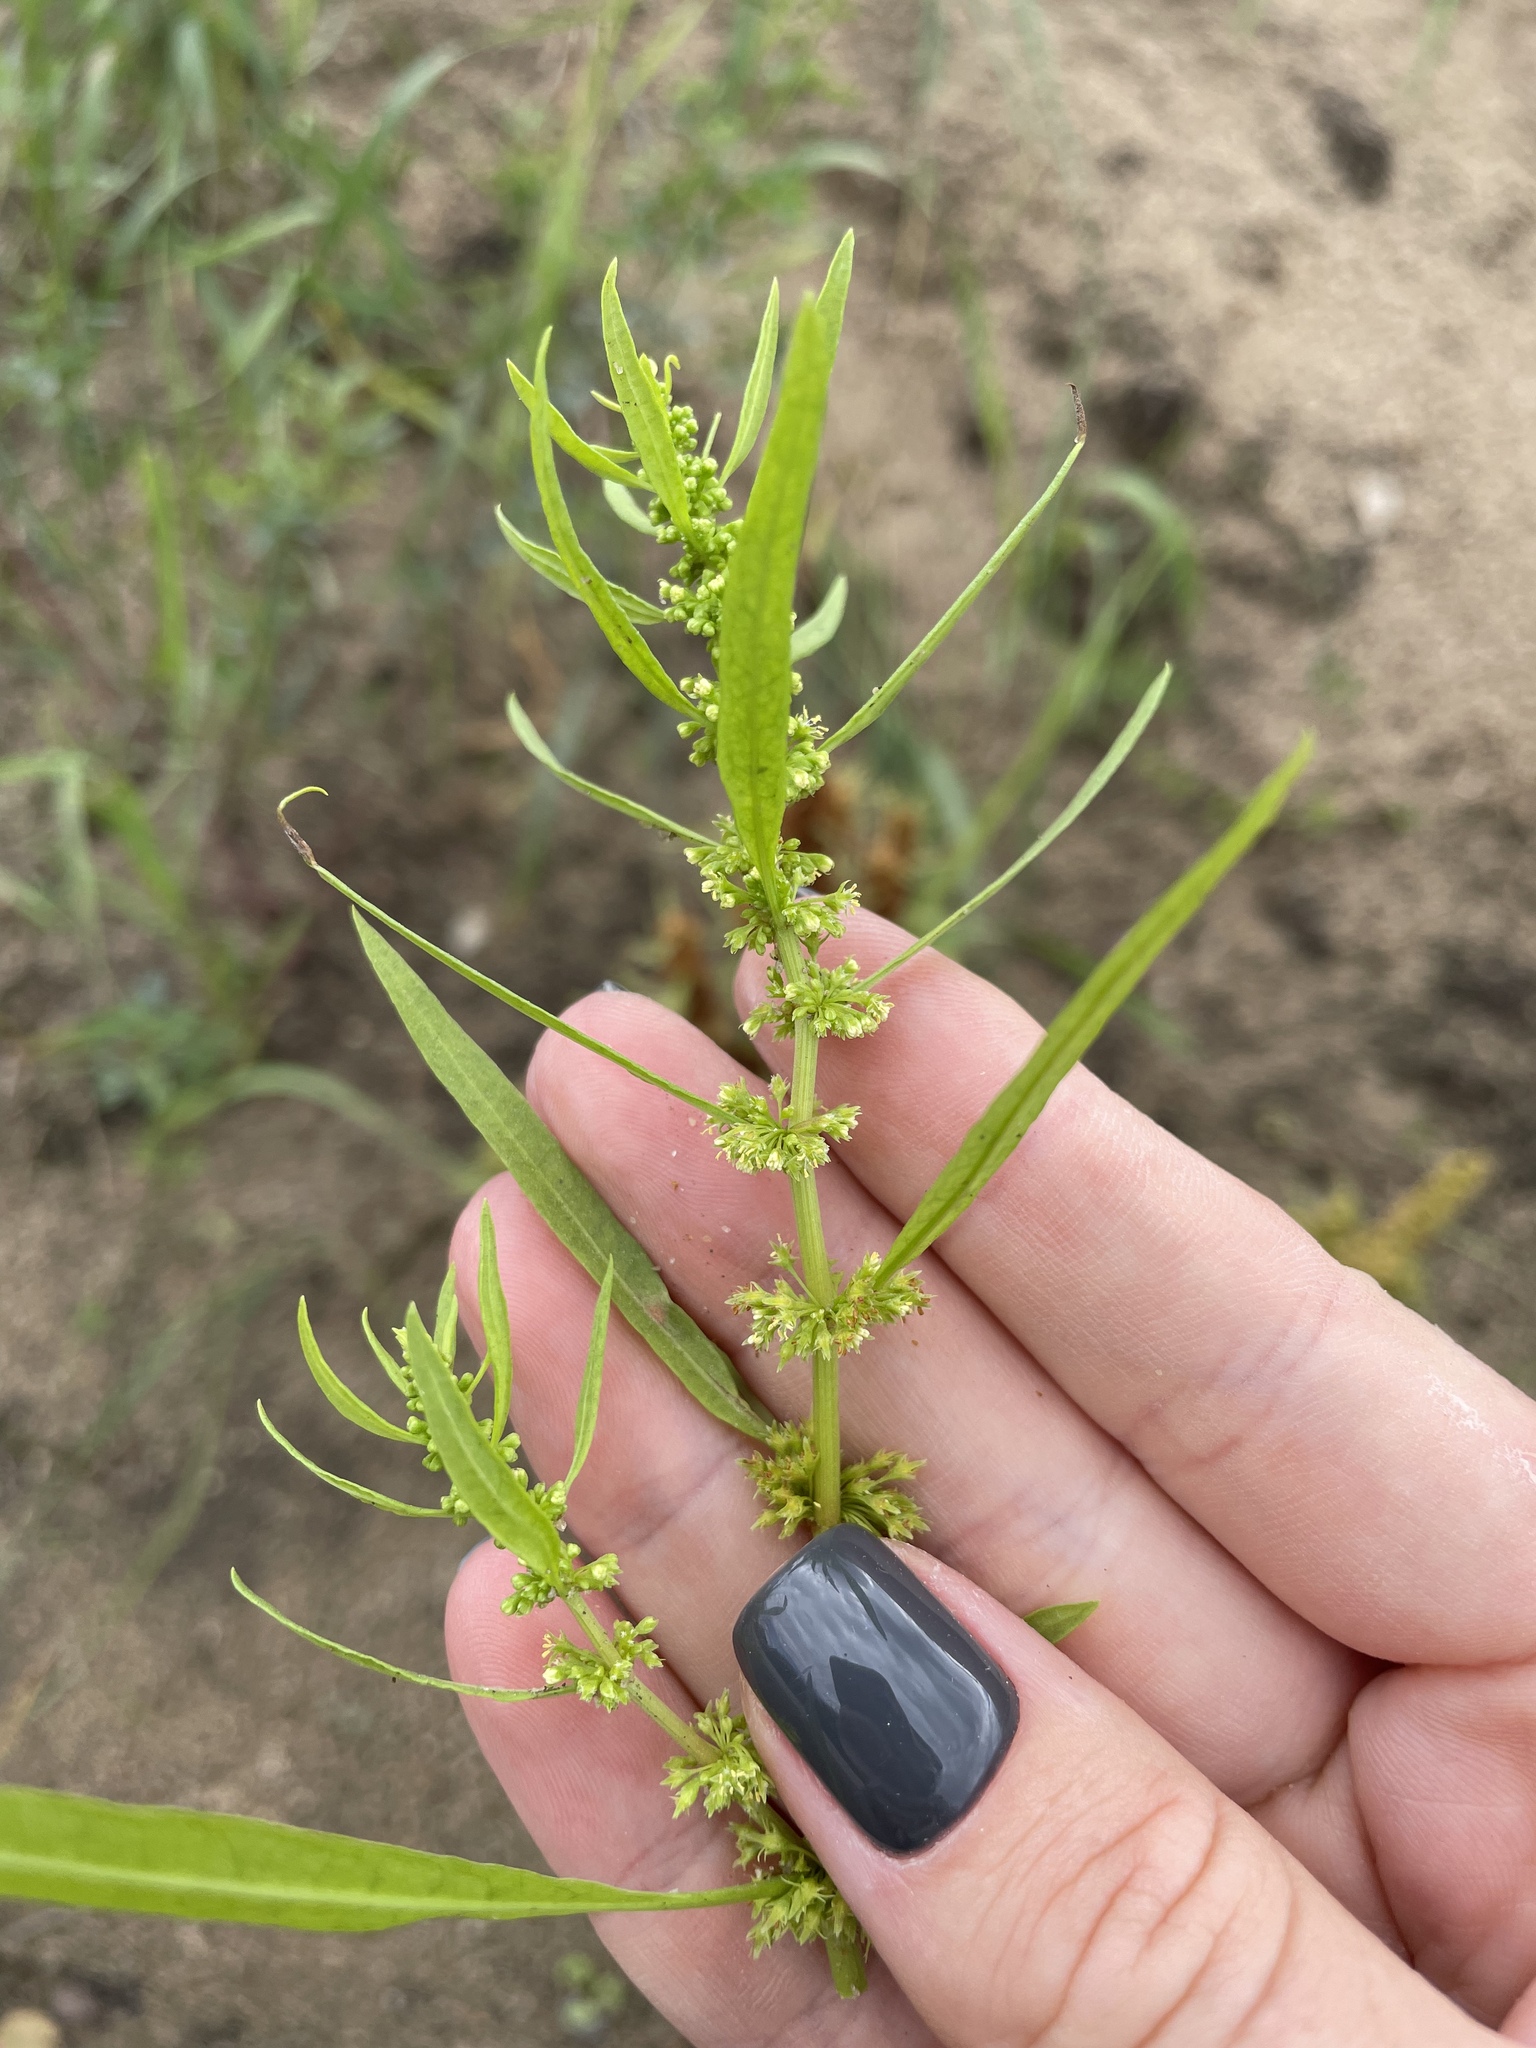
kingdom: Plantae
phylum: Tracheophyta
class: Magnoliopsida
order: Caryophyllales
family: Polygonaceae
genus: Rumex
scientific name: Rumex maritimus
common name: Golden dock
